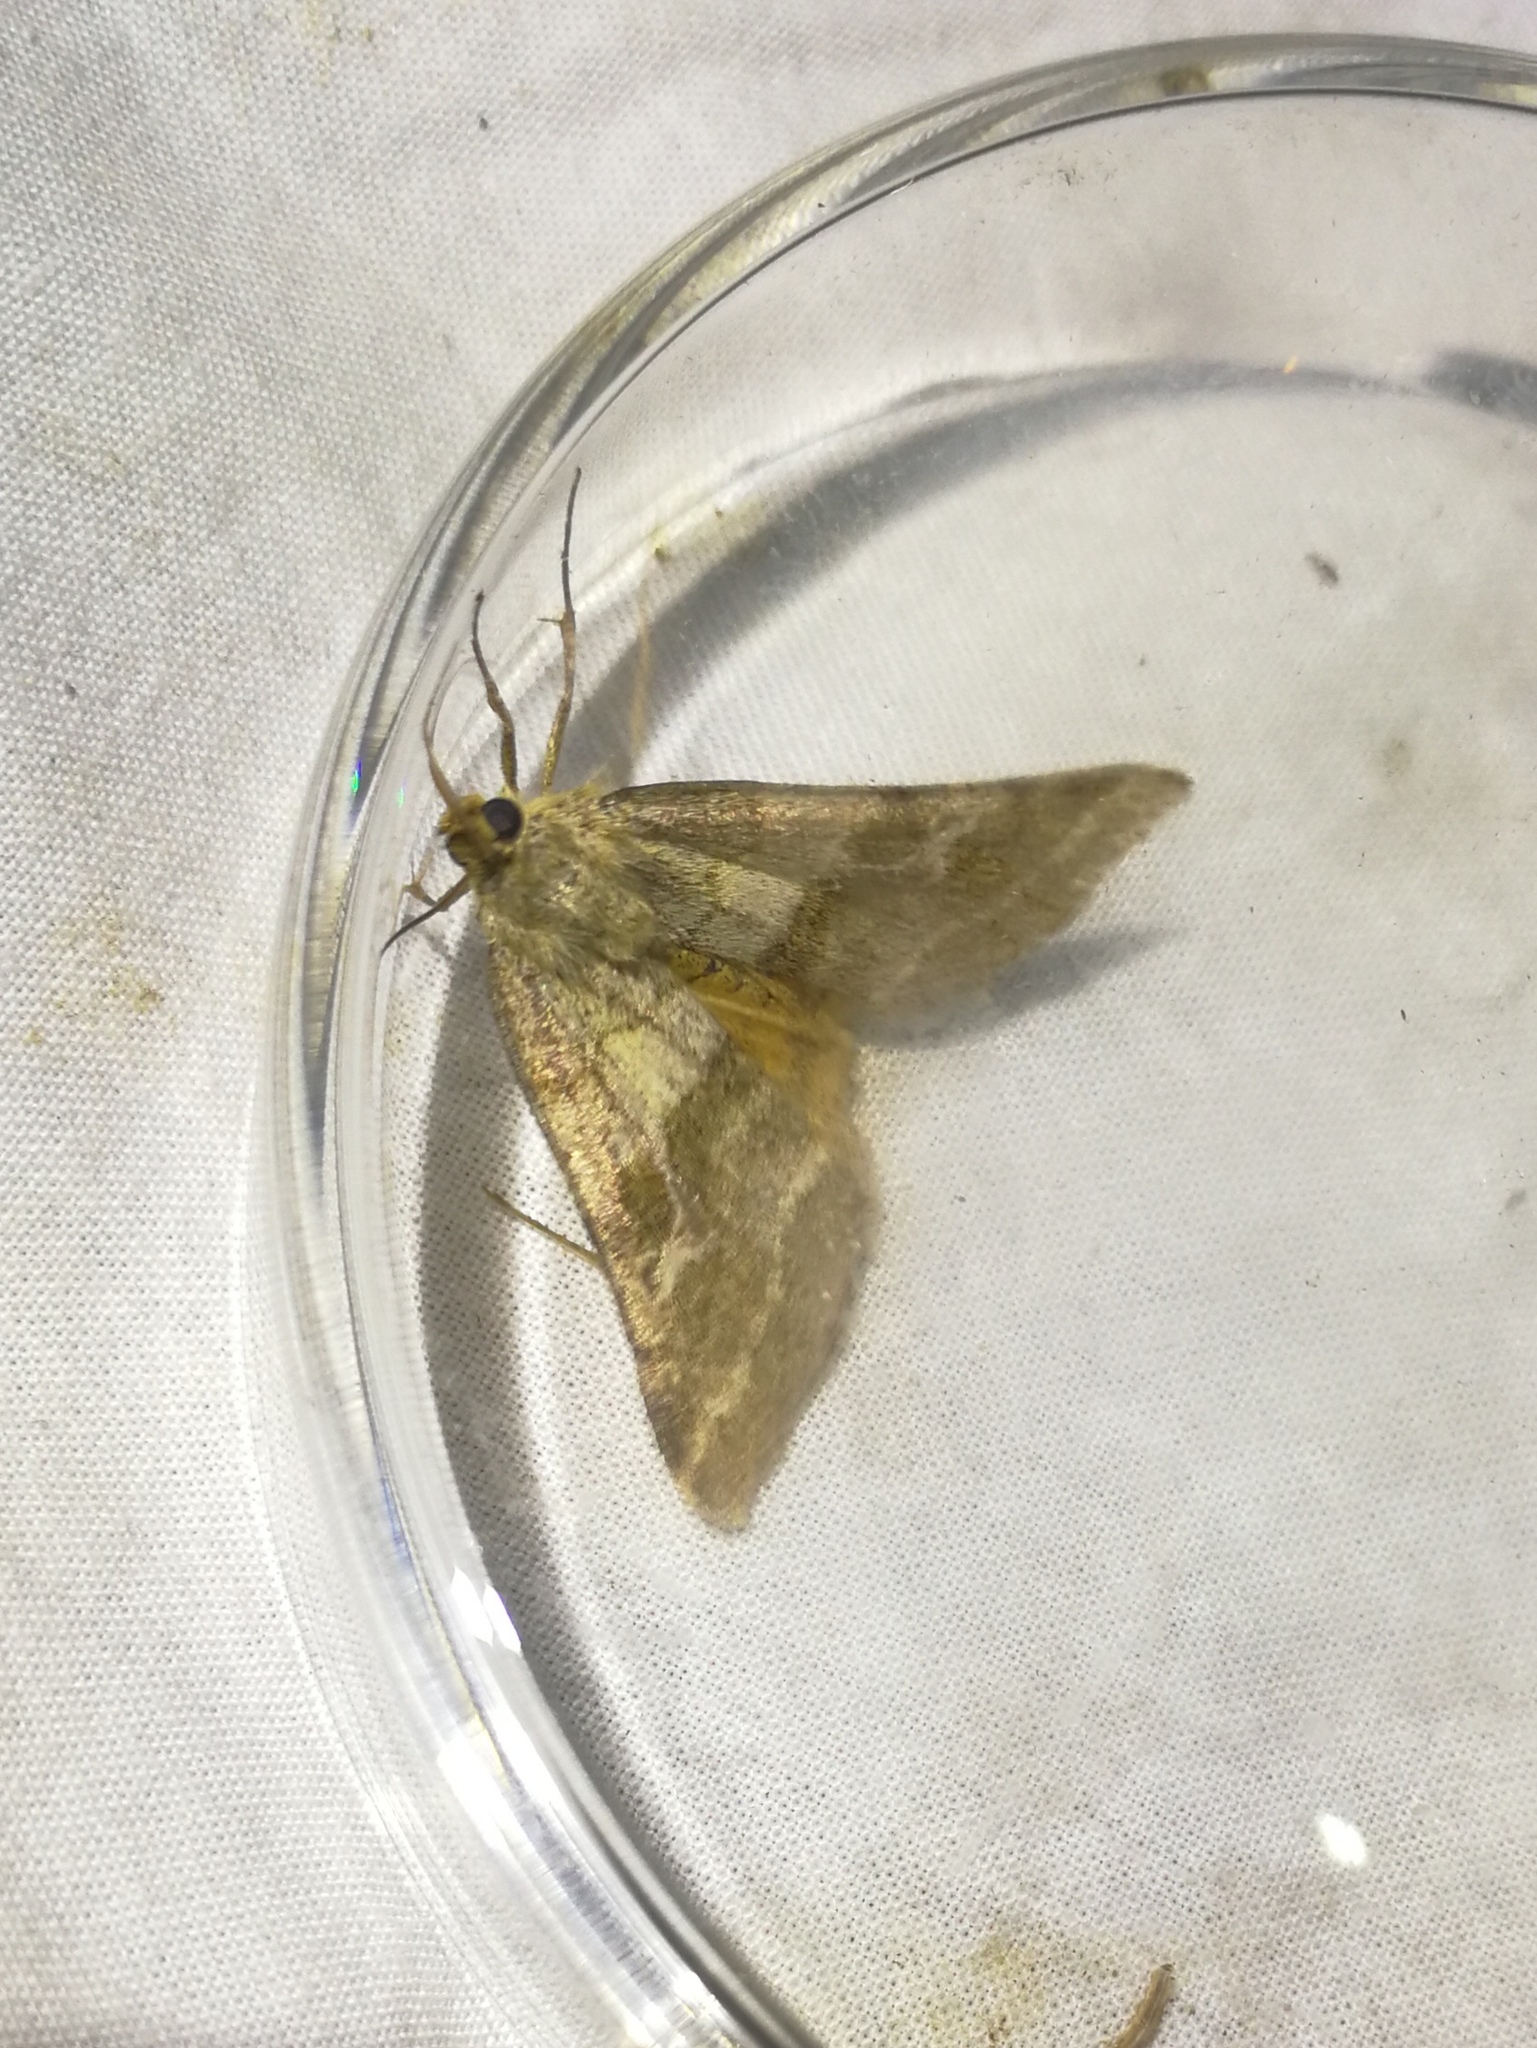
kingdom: Animalia
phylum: Arthropoda
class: Insecta
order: Lepidoptera
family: Noctuidae
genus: Synthymia
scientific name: Synthymia fixa
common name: Goldwing
